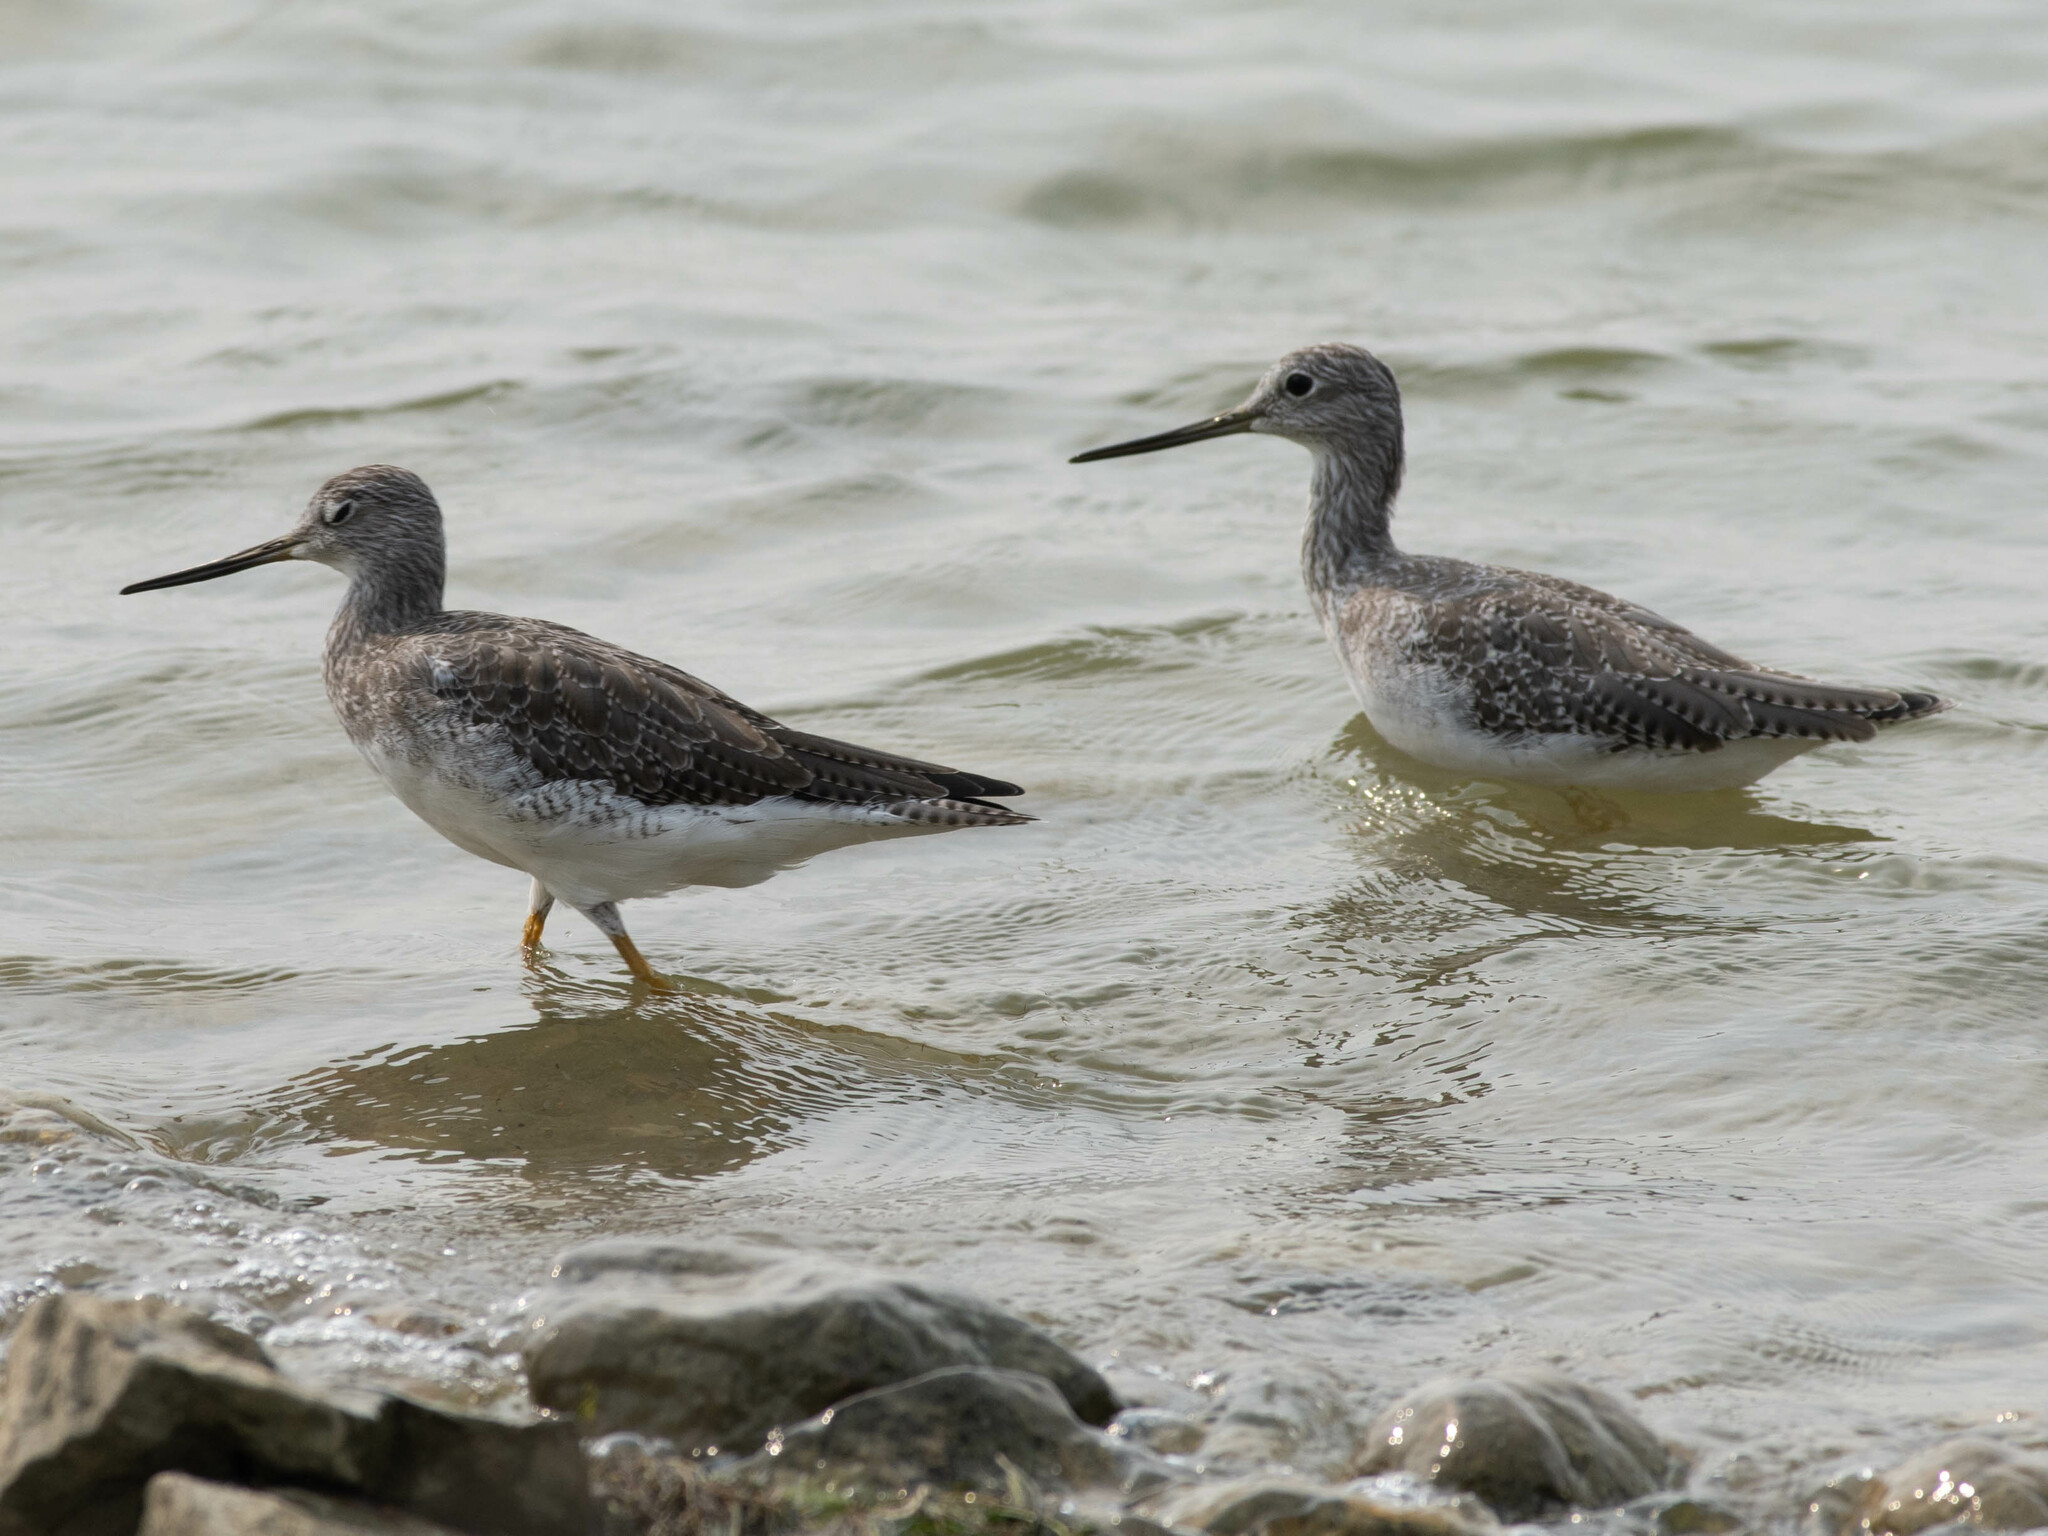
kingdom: Animalia
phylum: Chordata
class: Aves
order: Charadriiformes
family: Scolopacidae
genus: Tringa
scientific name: Tringa melanoleuca
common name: Greater yellowlegs
